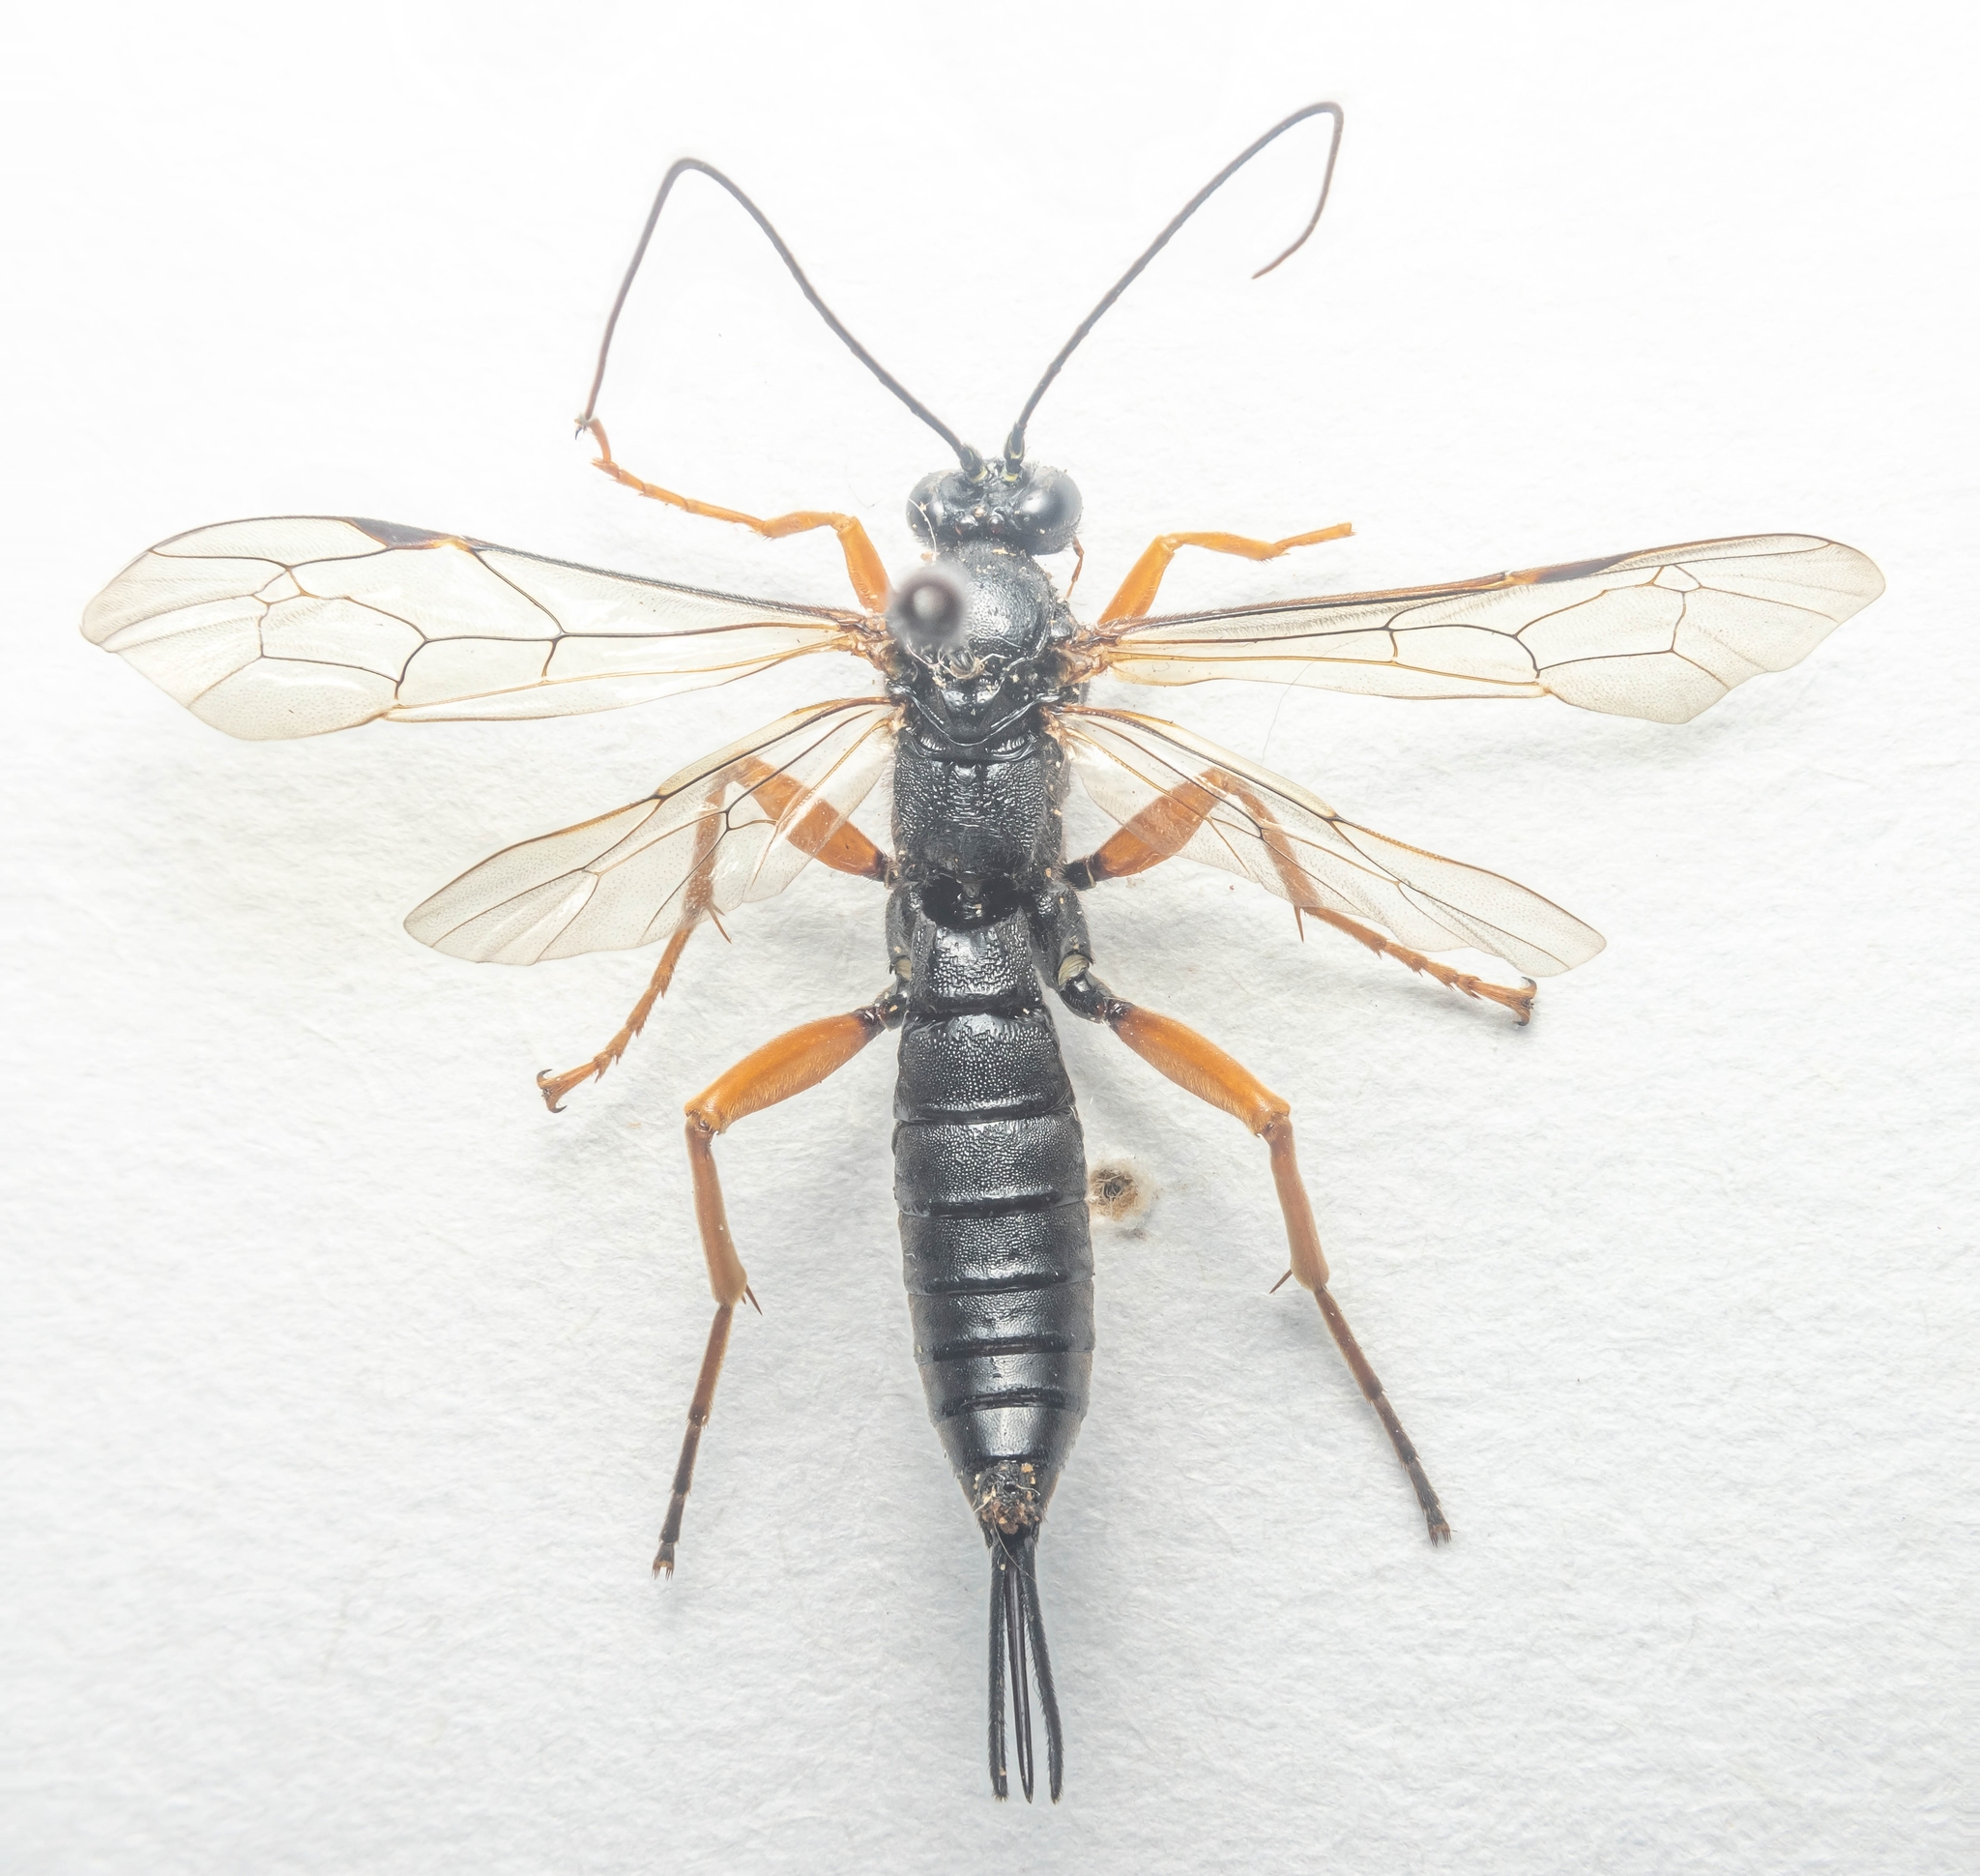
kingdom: Animalia
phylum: Arthropoda
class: Insecta
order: Hymenoptera
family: Ichneumonidae
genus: Pimpla
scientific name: Pimpla rufipes
